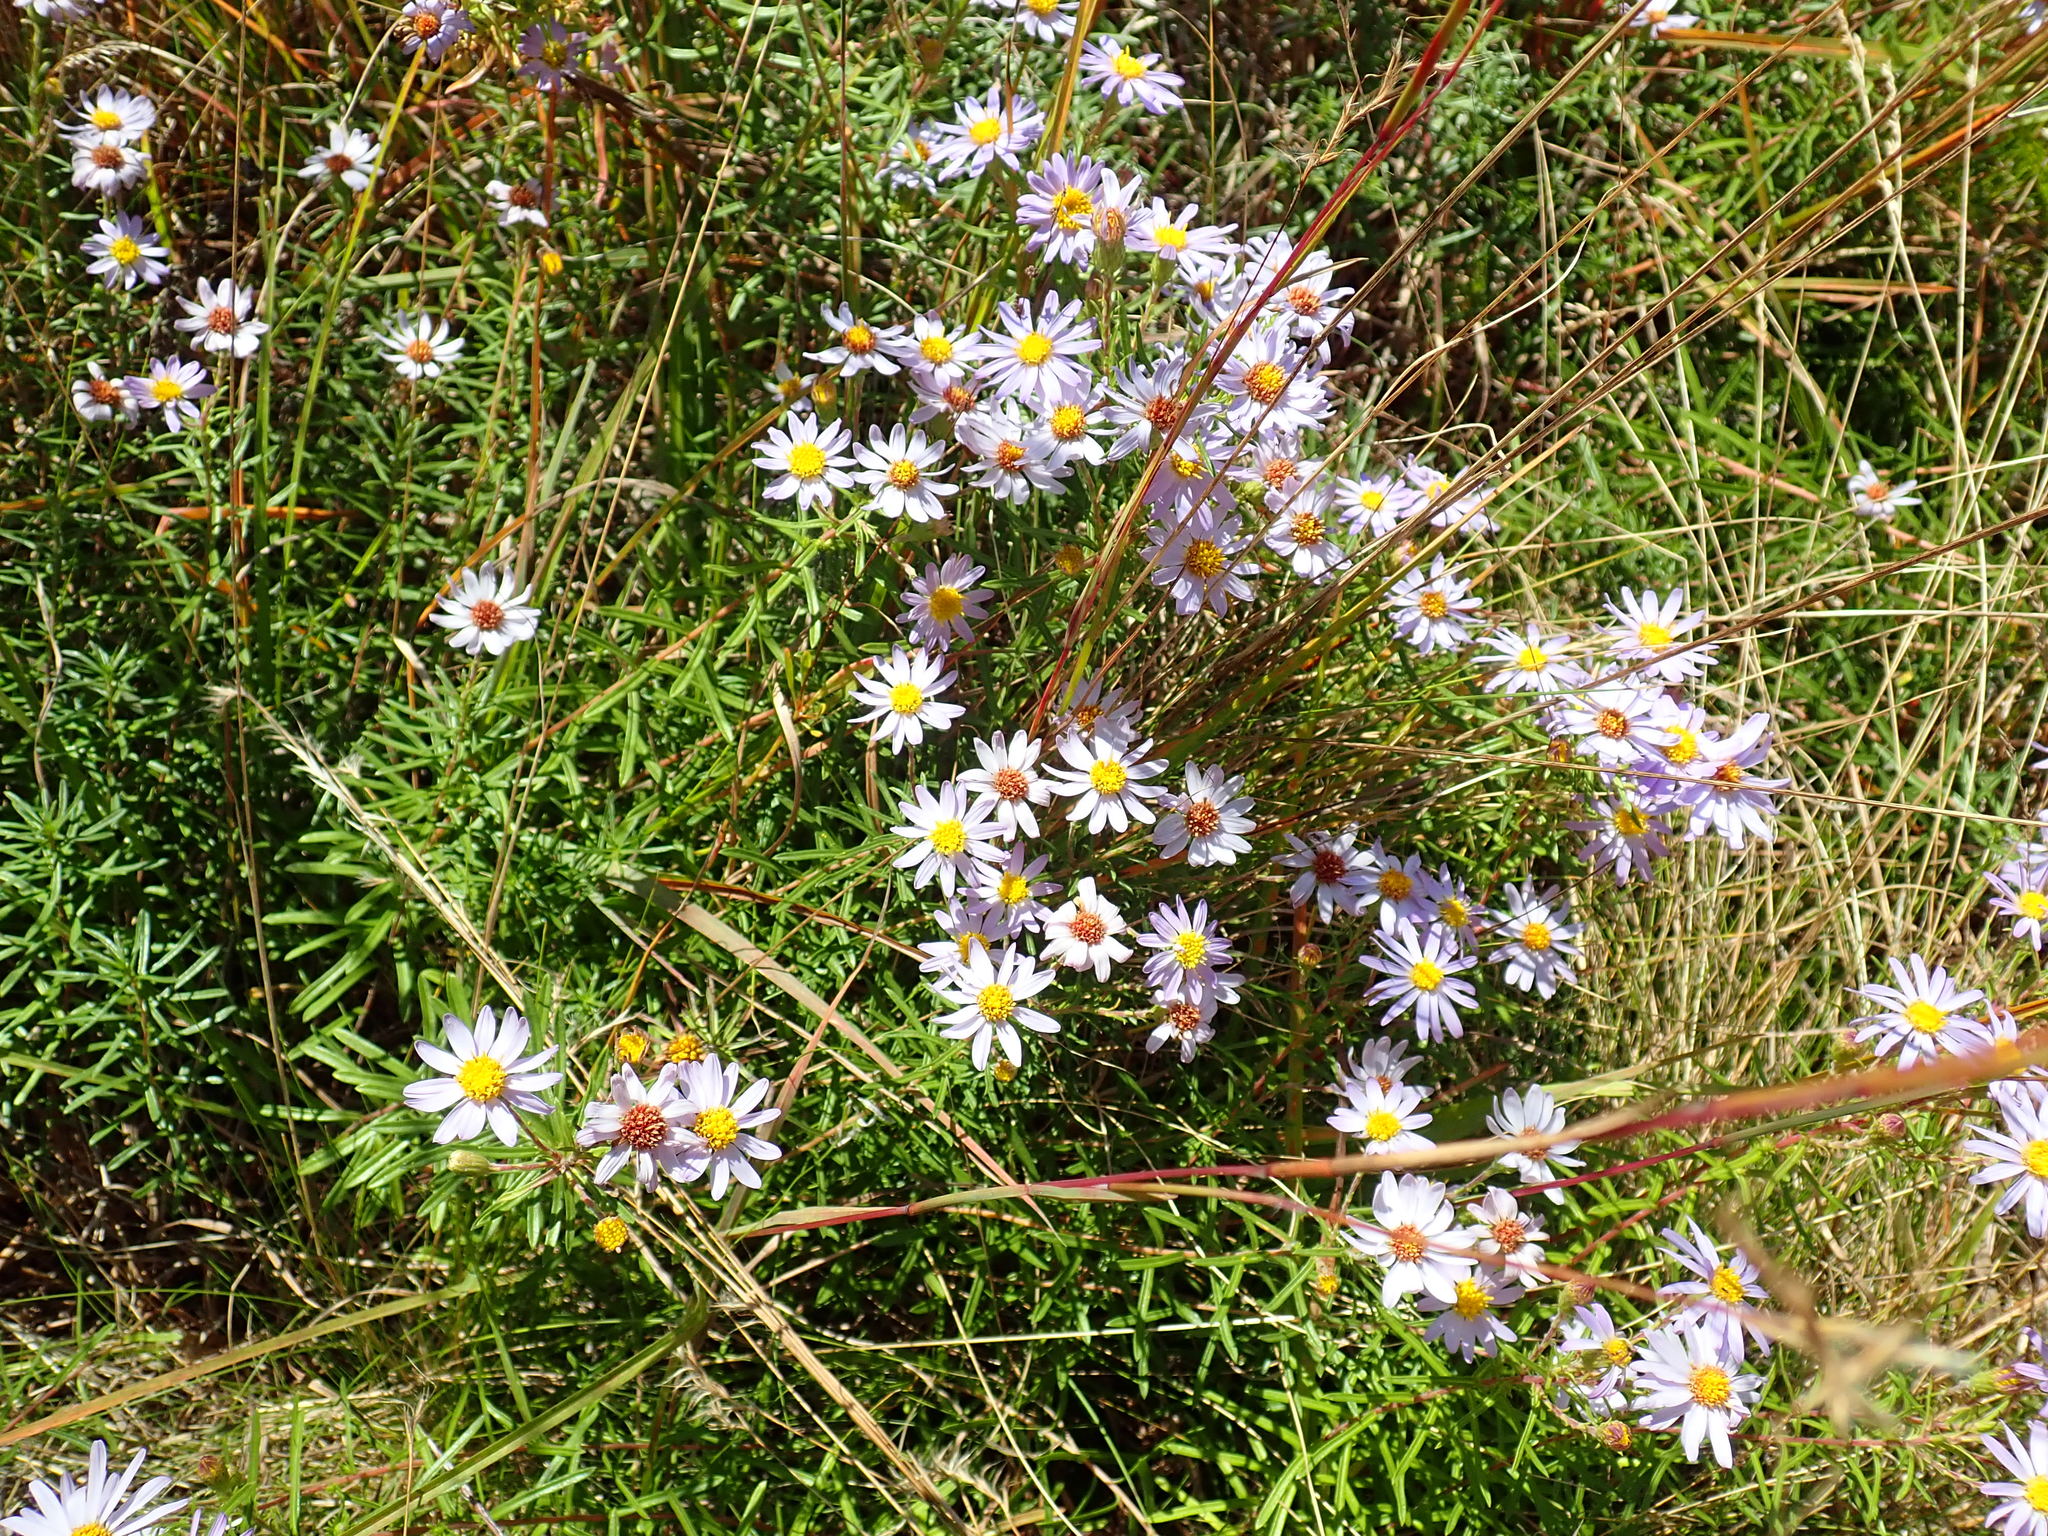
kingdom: Plantae
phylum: Tracheophyta
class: Magnoliopsida
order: Asterales
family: Asteraceae
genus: Ionactis
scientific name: Ionactis linariifolia
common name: Flax-leaf aster
